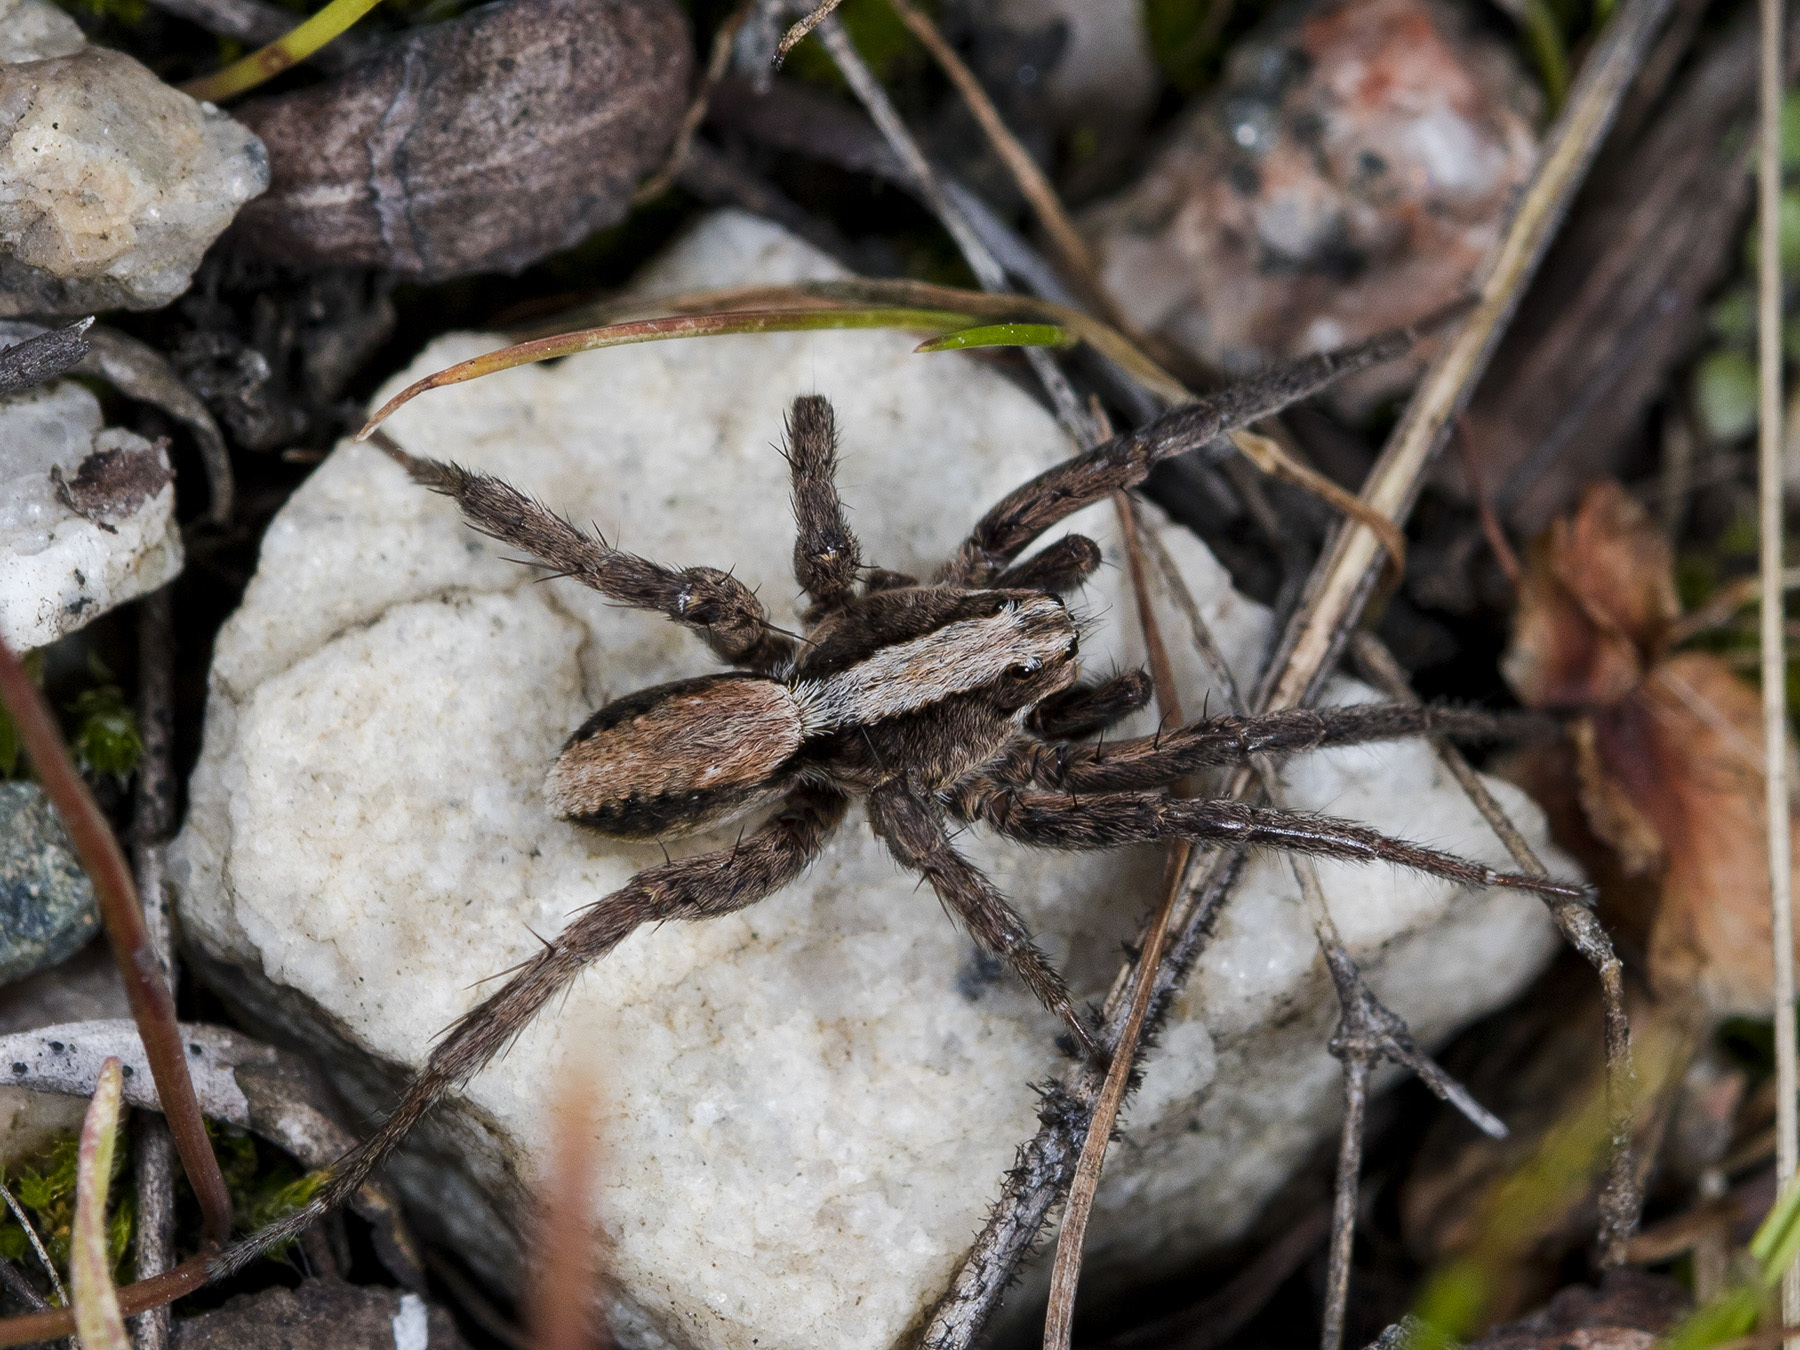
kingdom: Animalia
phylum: Arthropoda
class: Arachnida
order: Araneae
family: Lycosidae
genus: Alopecosa
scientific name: Alopecosa cursor
